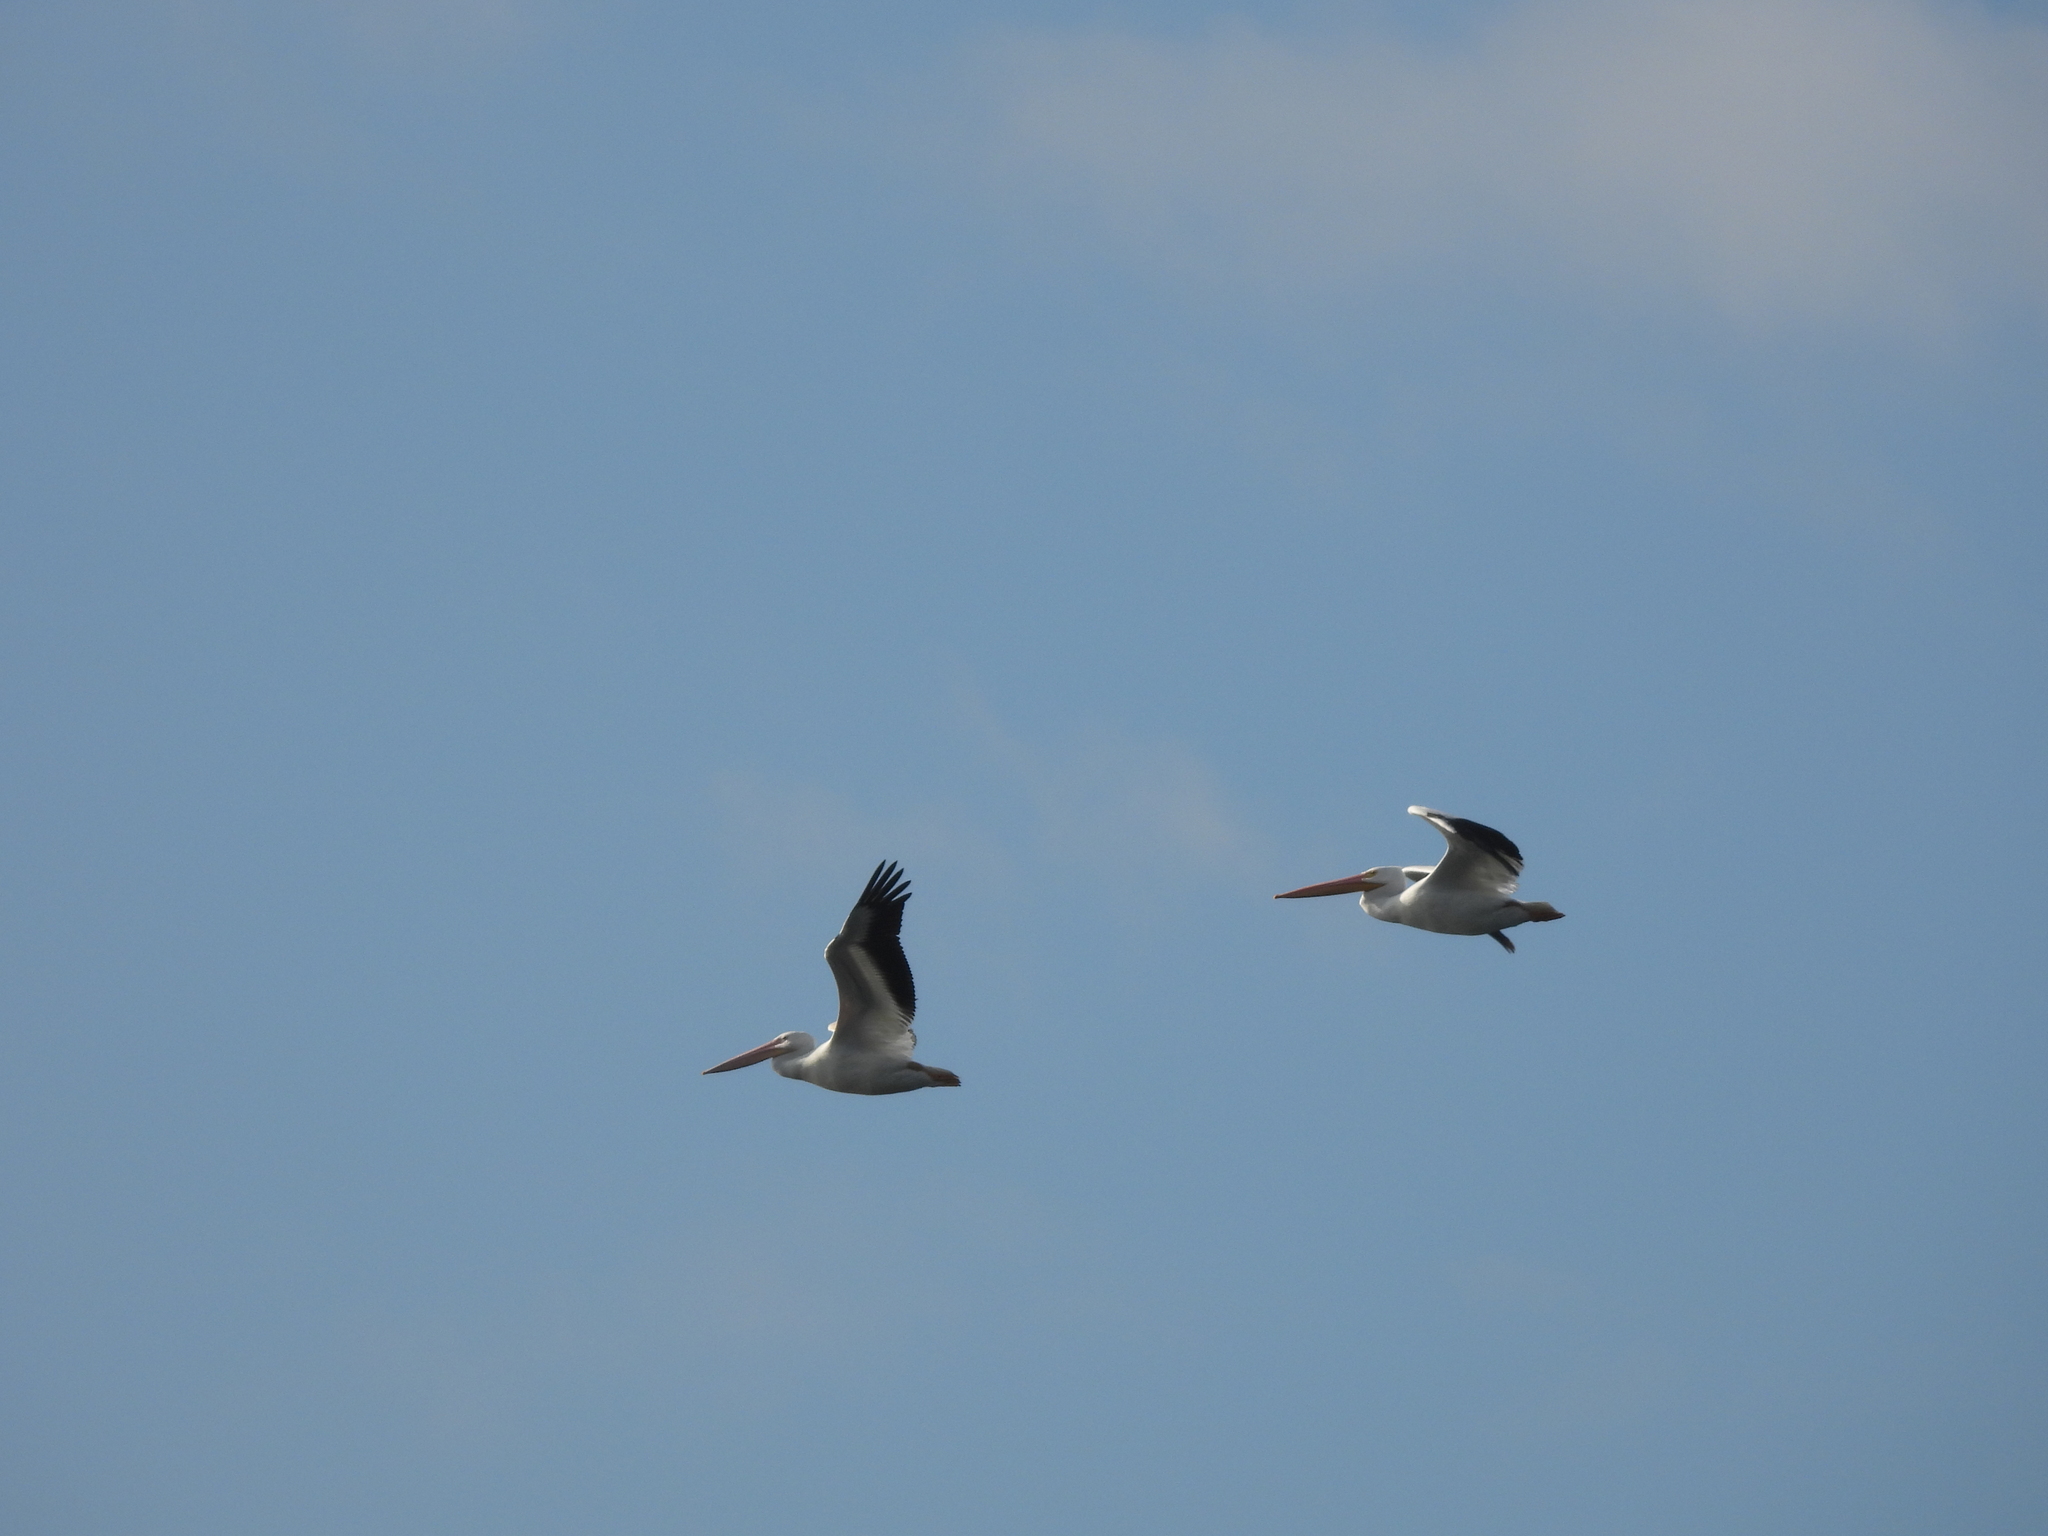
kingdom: Animalia
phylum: Chordata
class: Aves
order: Pelecaniformes
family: Pelecanidae
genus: Pelecanus
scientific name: Pelecanus erythrorhynchos
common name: American white pelican
